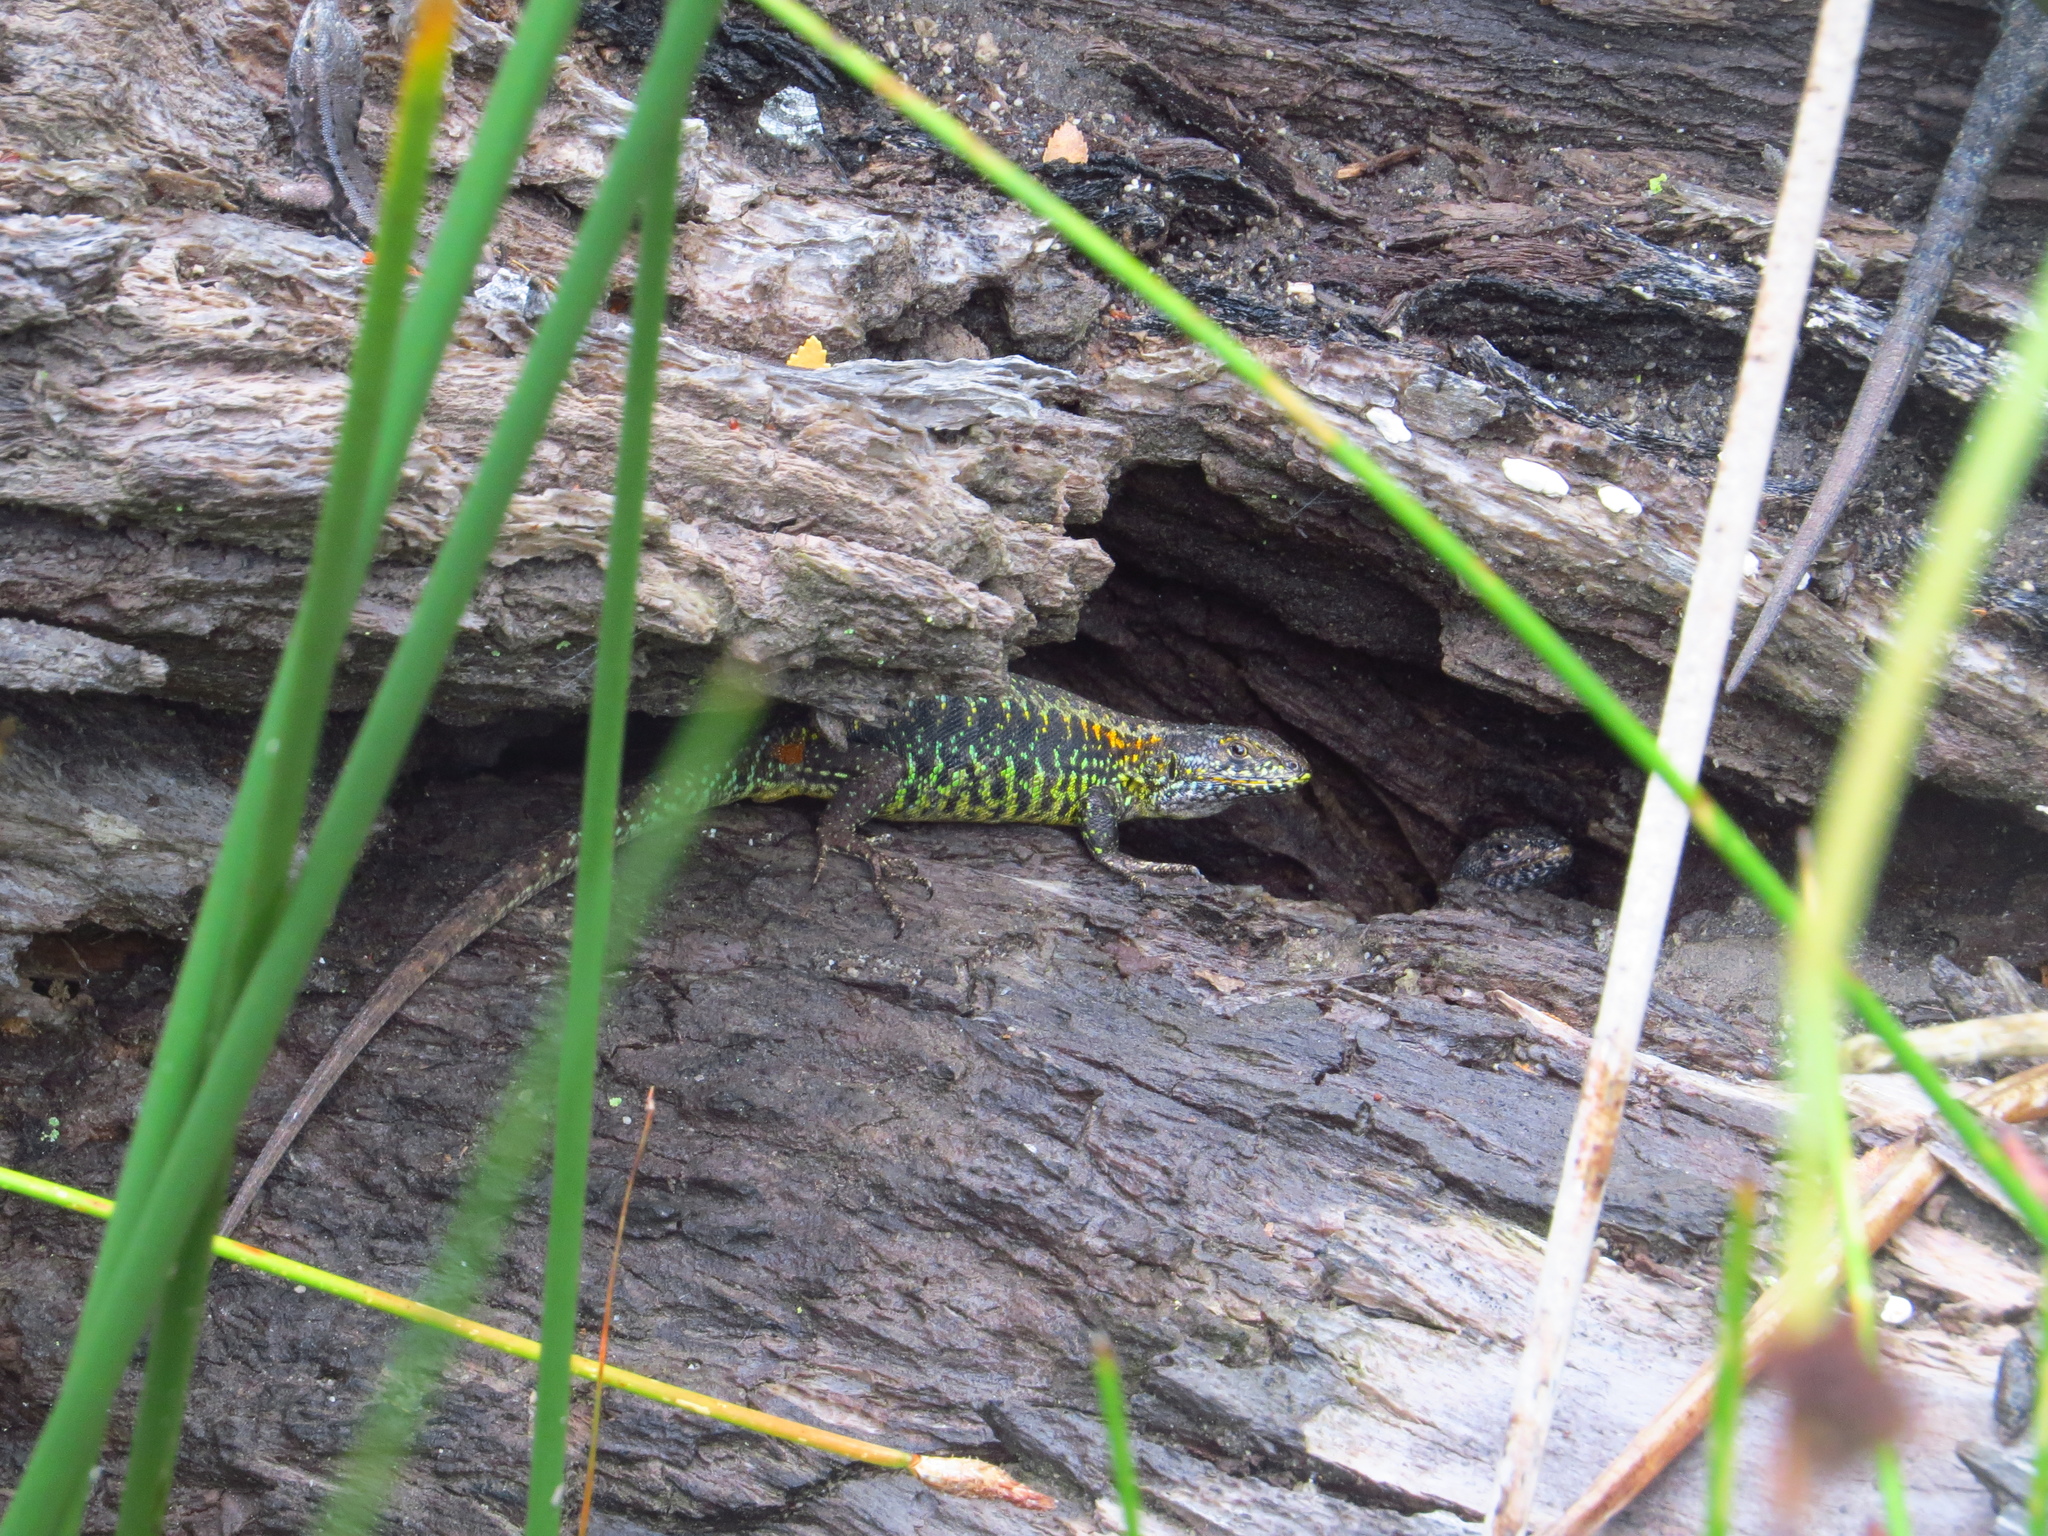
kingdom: Animalia
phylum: Chordata
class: Squamata
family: Liolaemidae
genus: Liolaemus
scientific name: Liolaemus pictus
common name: Painted tree iguana
